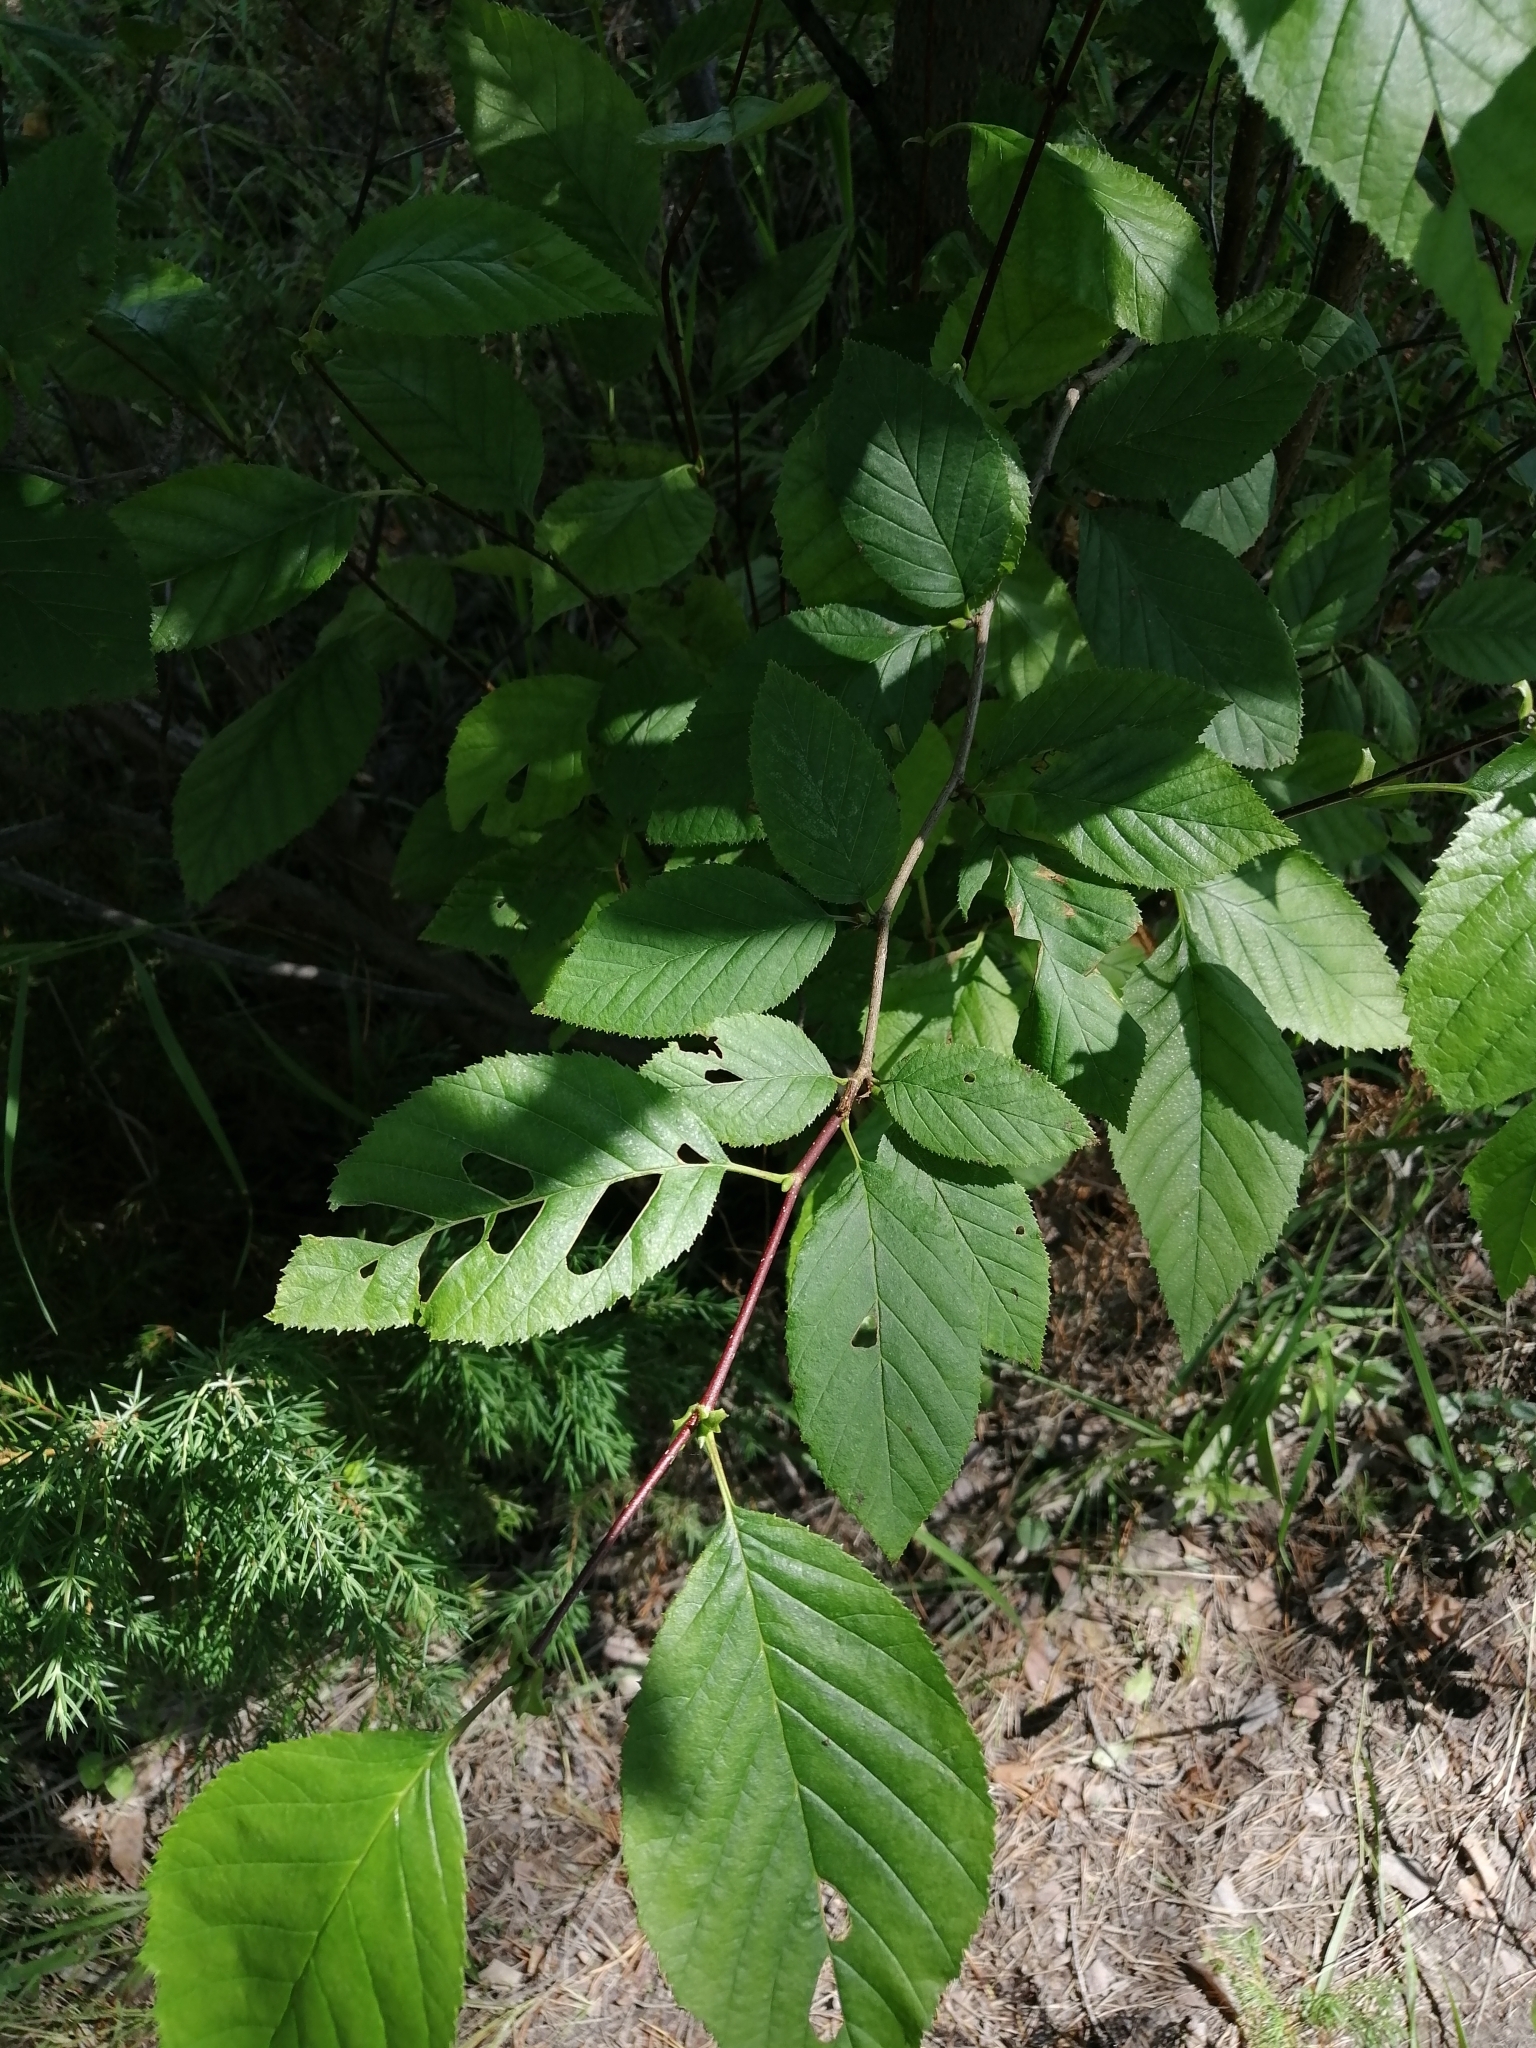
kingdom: Plantae
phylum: Tracheophyta
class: Magnoliopsida
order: Fagales
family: Betulaceae
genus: Alnus
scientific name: Alnus alnobetula
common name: Green alder
